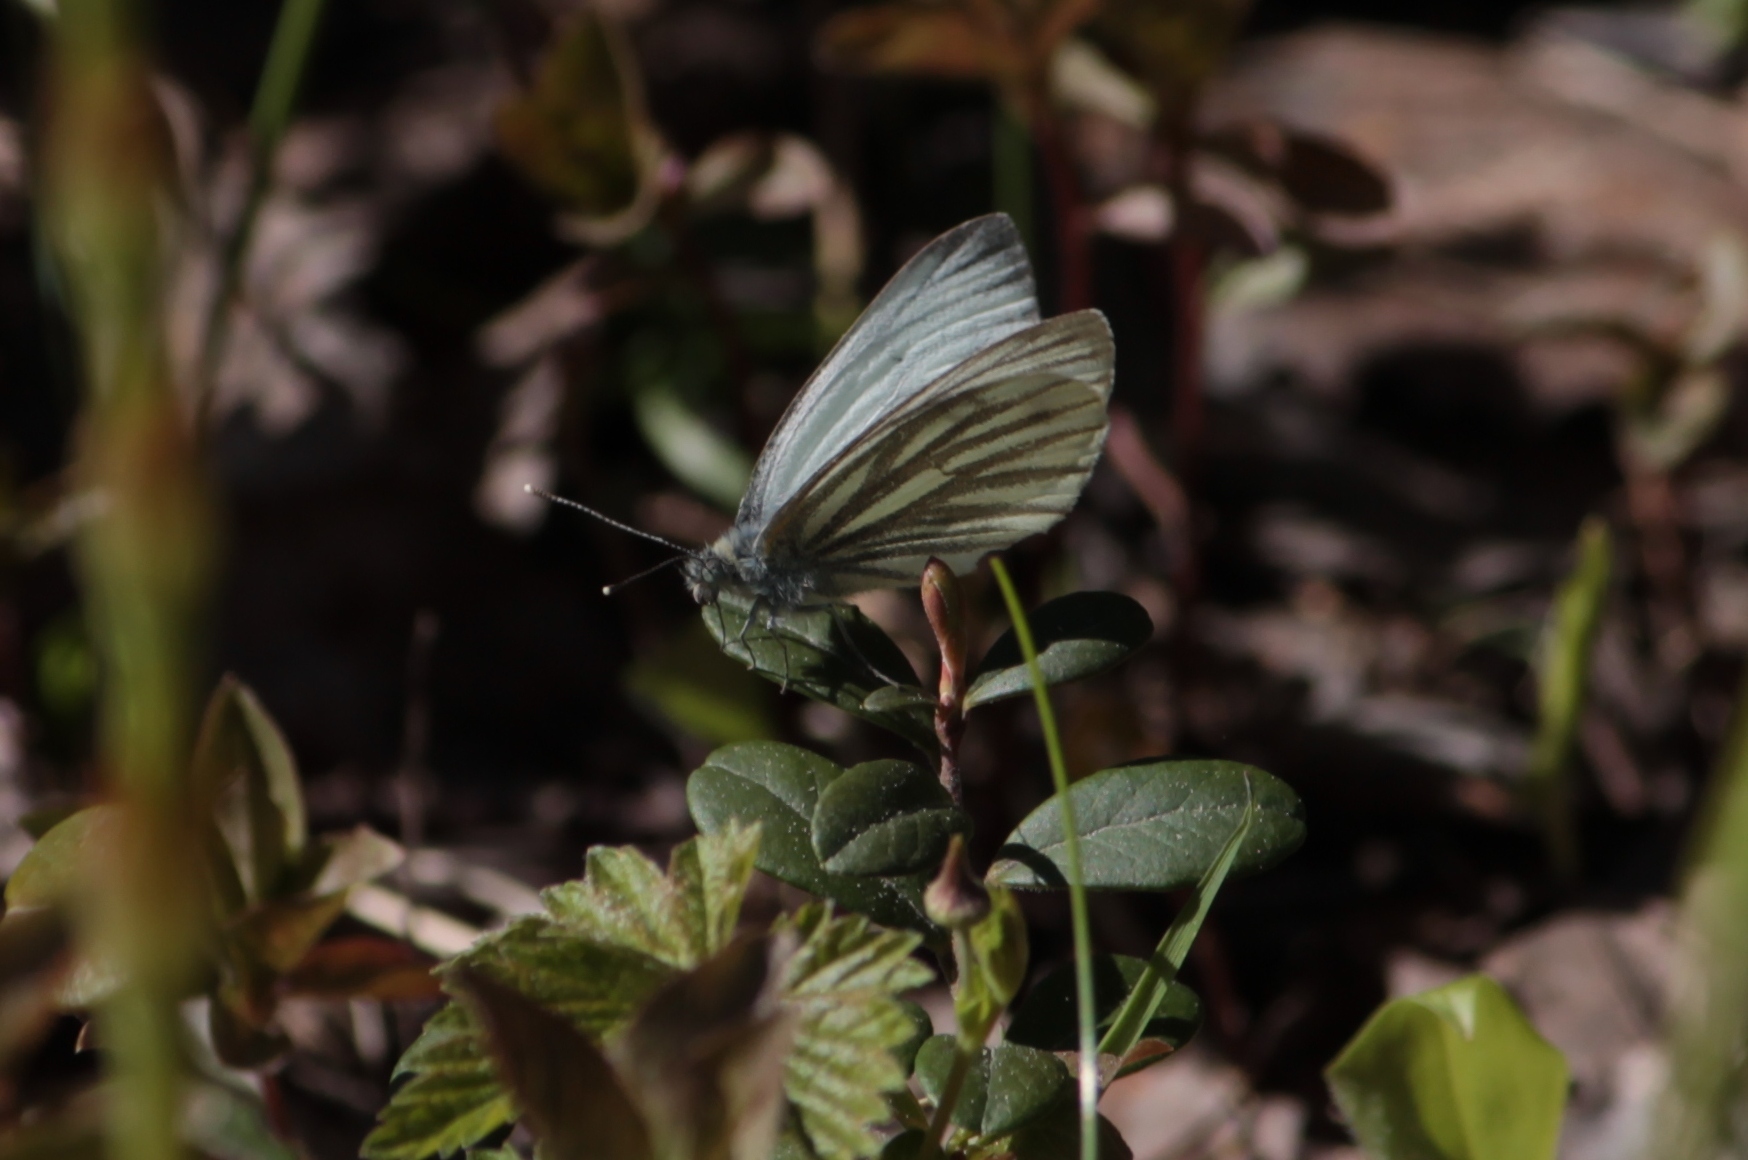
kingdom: Animalia
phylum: Arthropoda
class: Insecta
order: Lepidoptera
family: Pieridae
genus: Pieris
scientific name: Pieris napi
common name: Green-veined white
